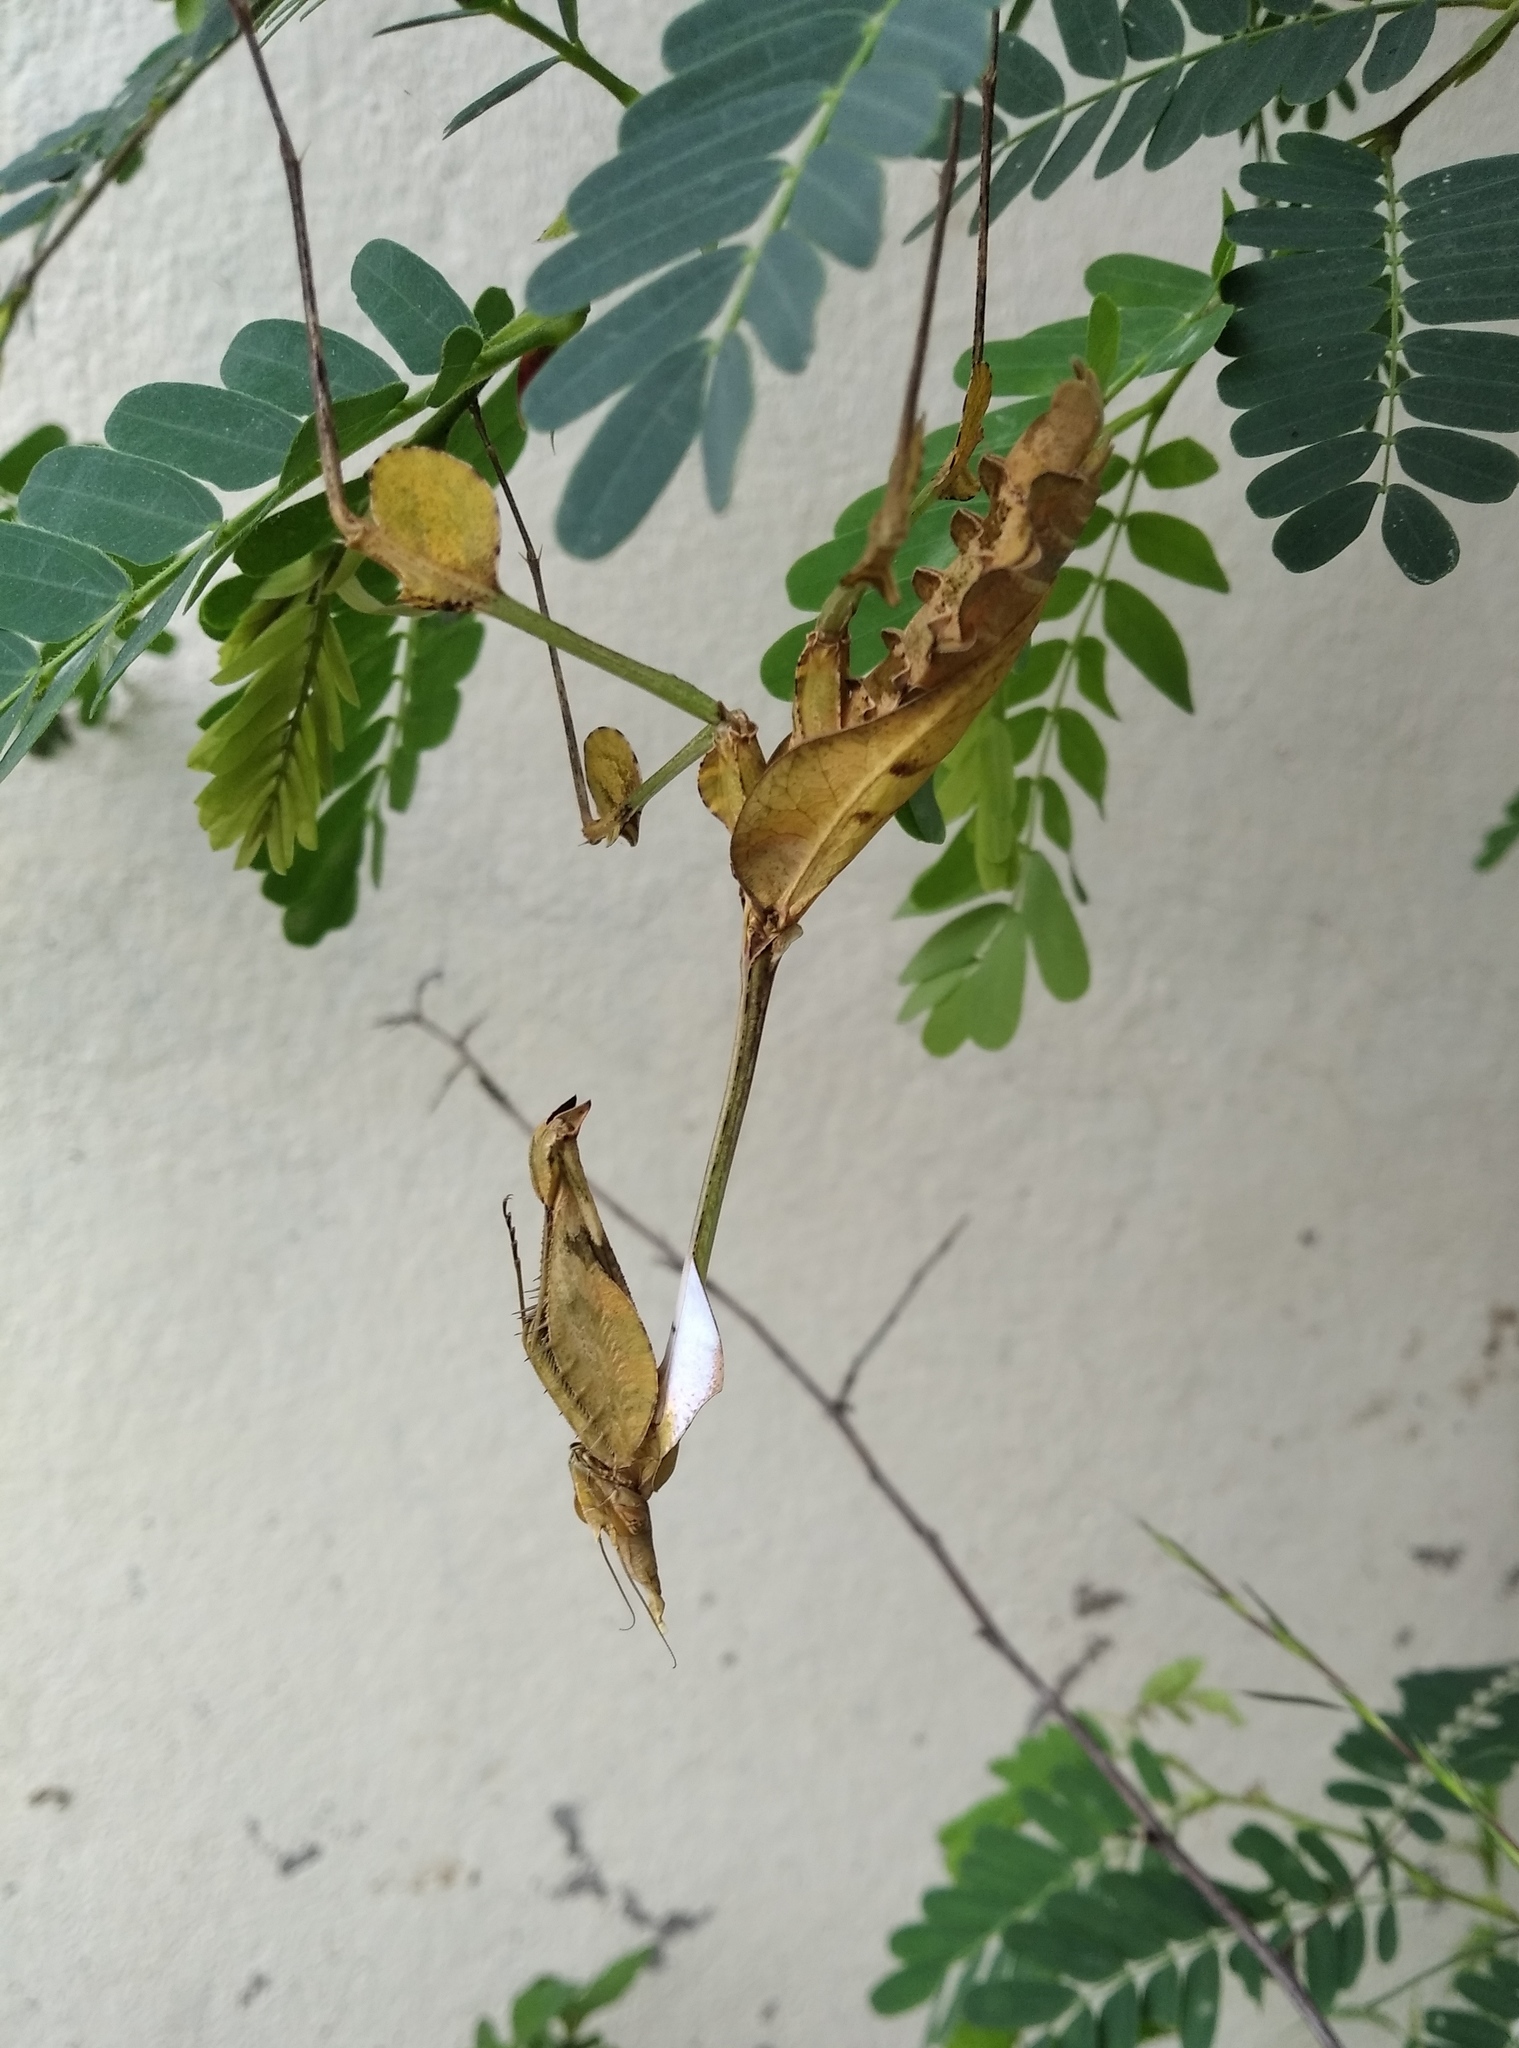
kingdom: Animalia
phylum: Arthropoda
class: Insecta
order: Mantodea
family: Empusidae
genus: Gongylus
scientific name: Gongylus gongylodes
